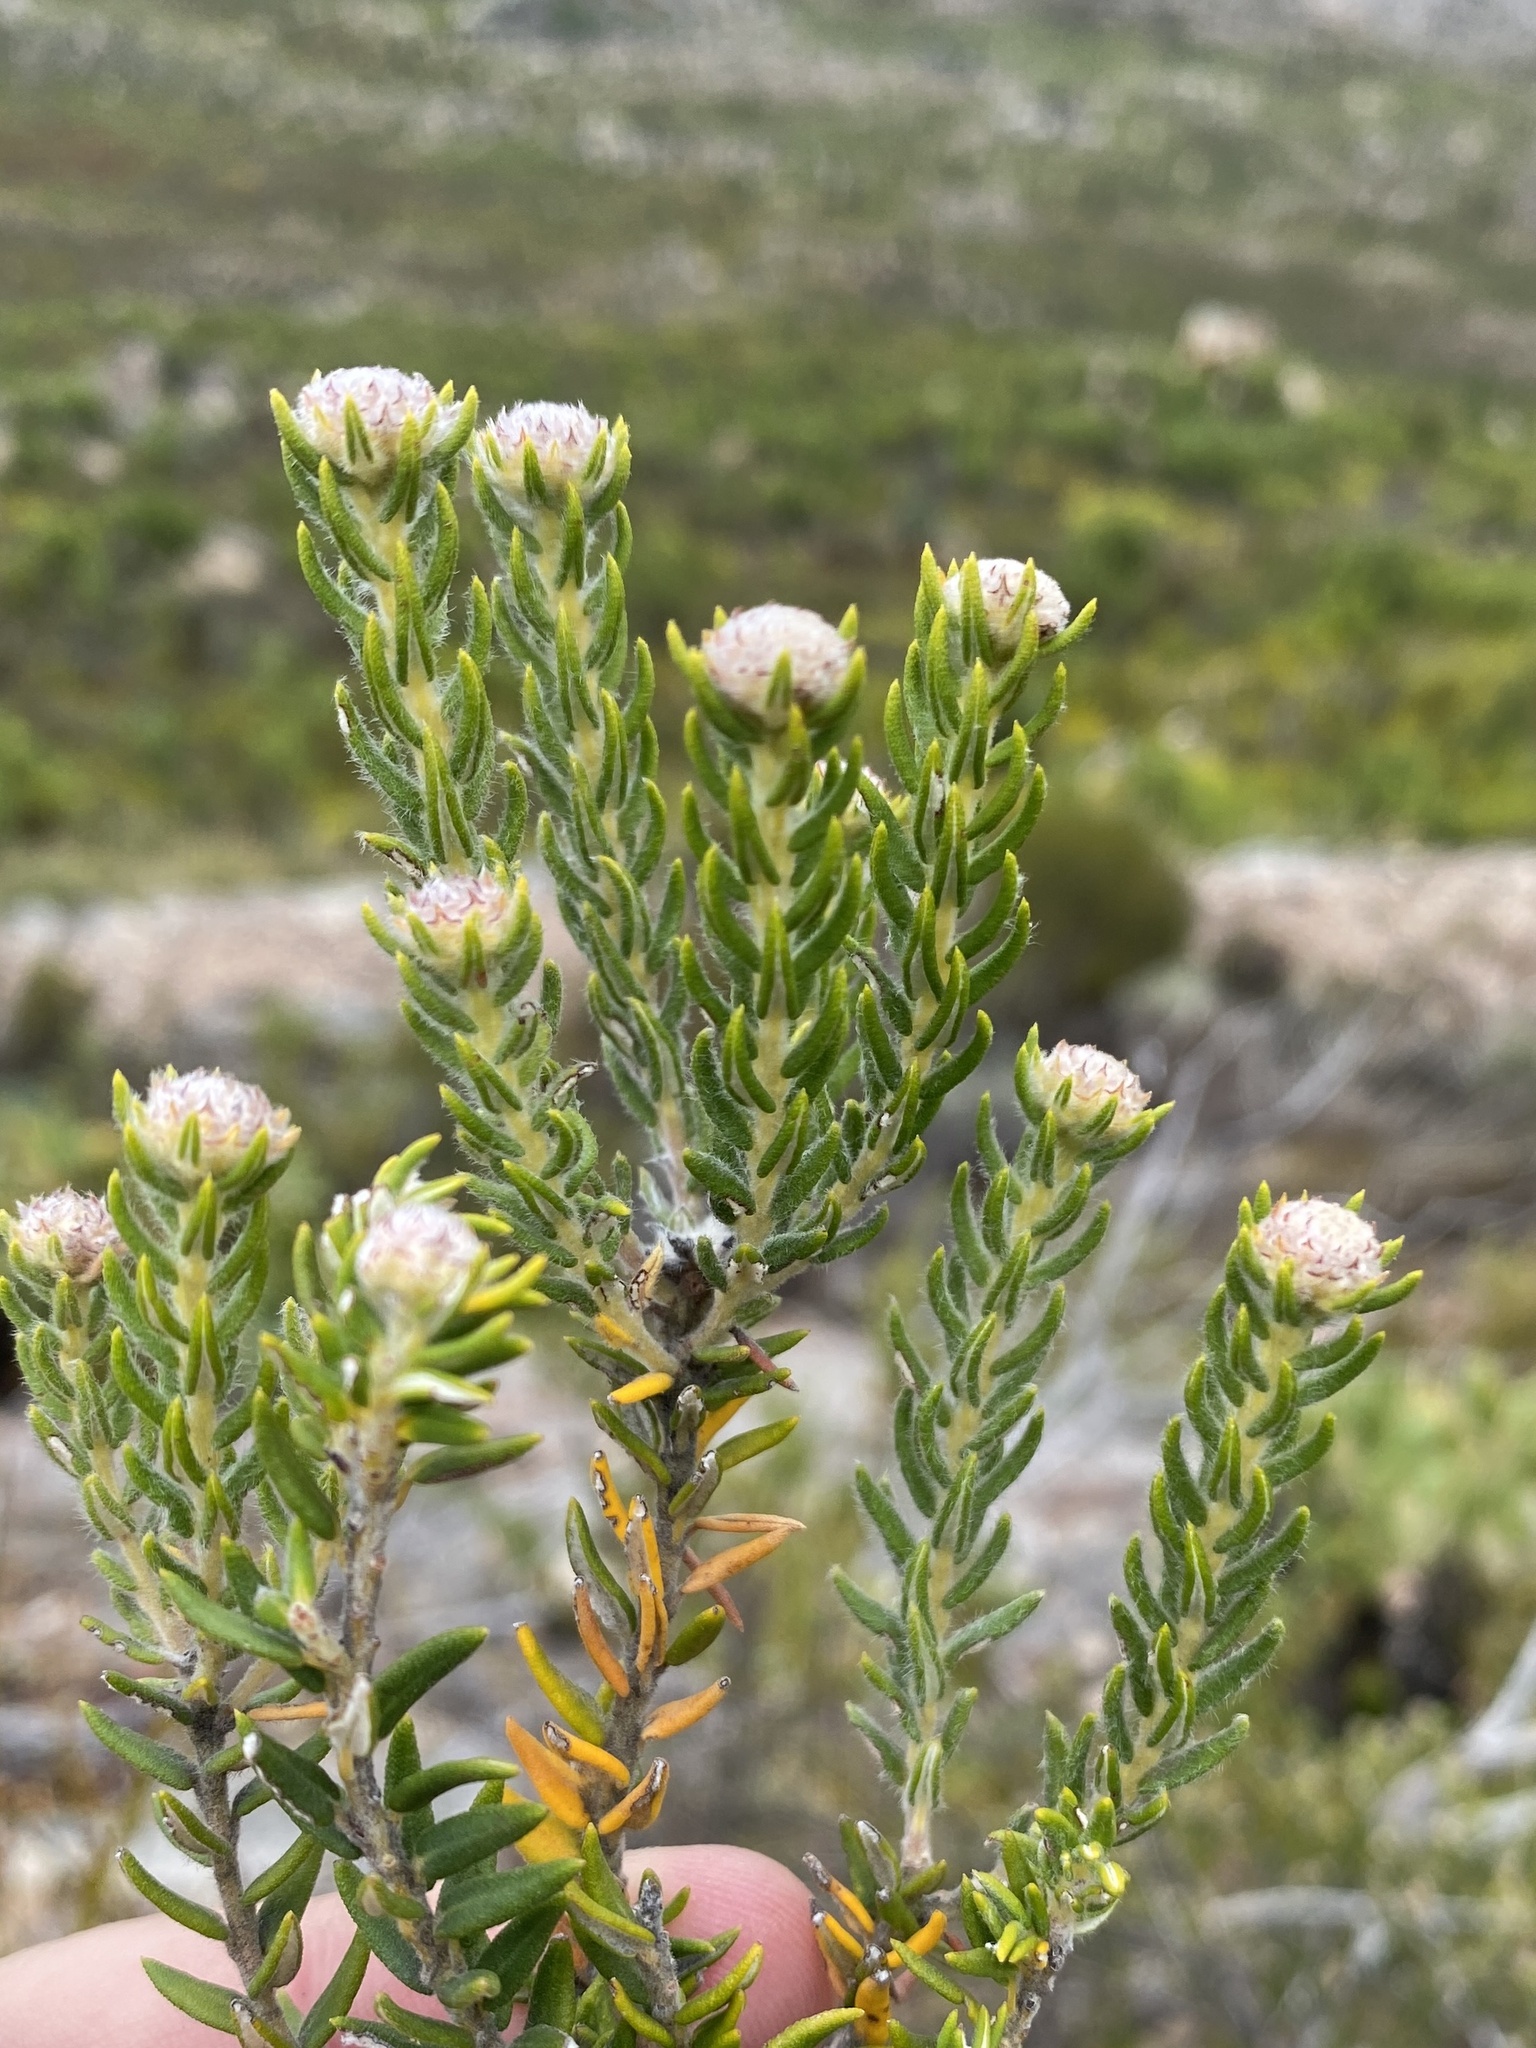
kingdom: Plantae
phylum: Tracheophyta
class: Magnoliopsida
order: Rosales
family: Rhamnaceae
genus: Phylica
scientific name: Phylica comosa
